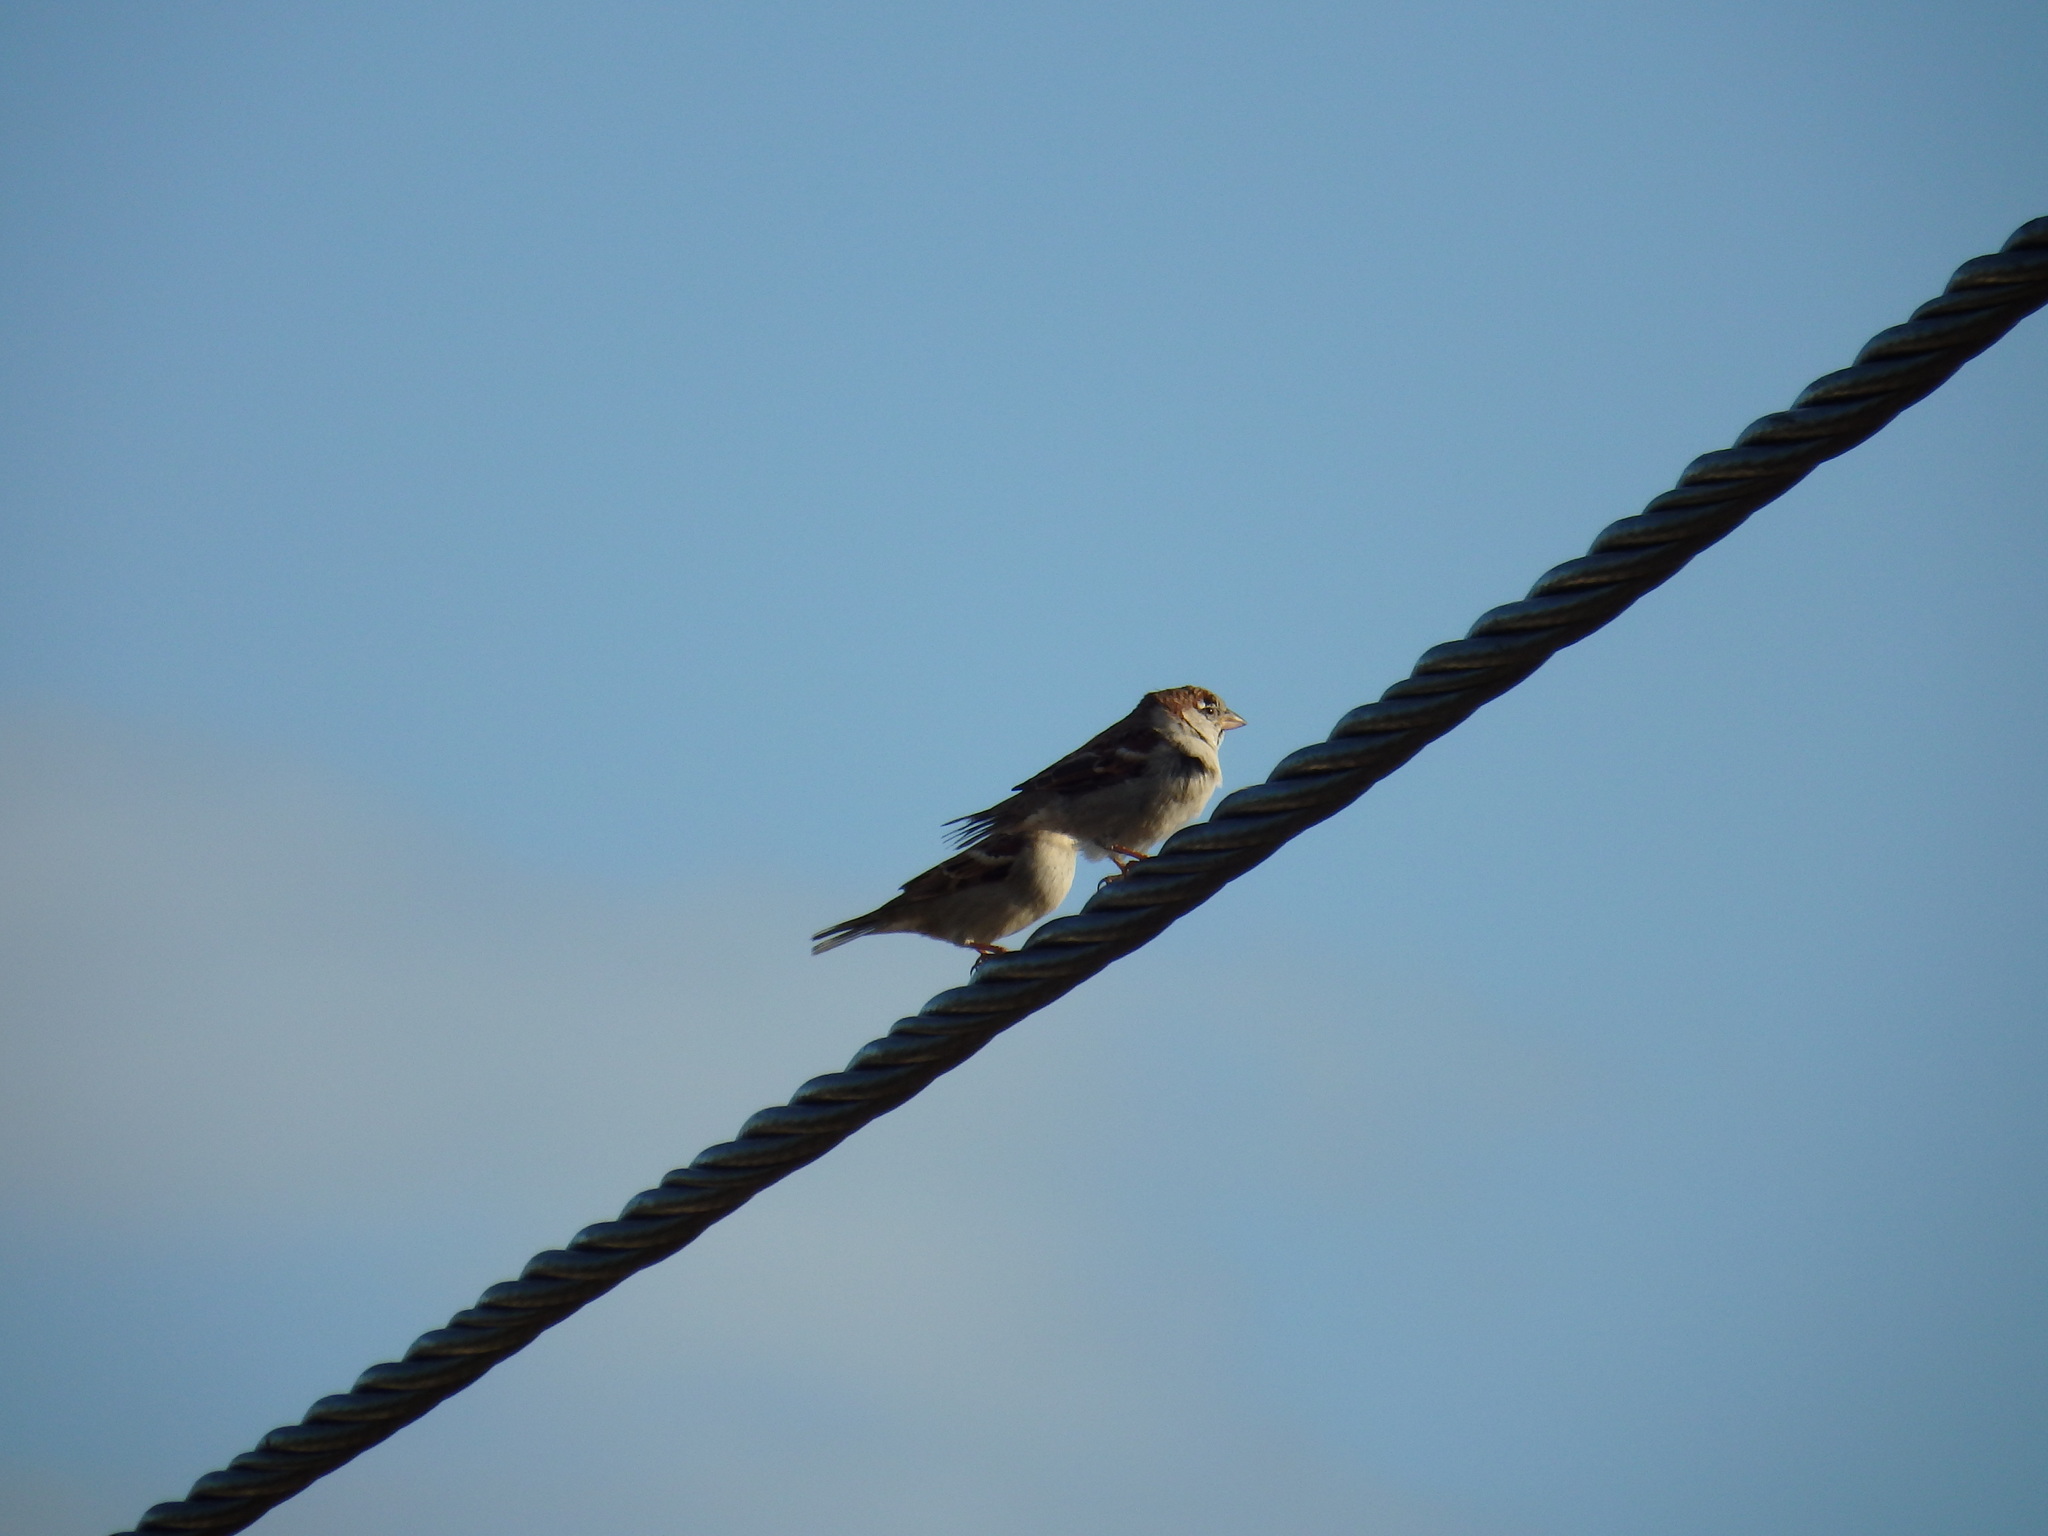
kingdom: Animalia
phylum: Chordata
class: Aves
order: Passeriformes
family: Passeridae
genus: Passer
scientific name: Passer domesticus
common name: House sparrow
